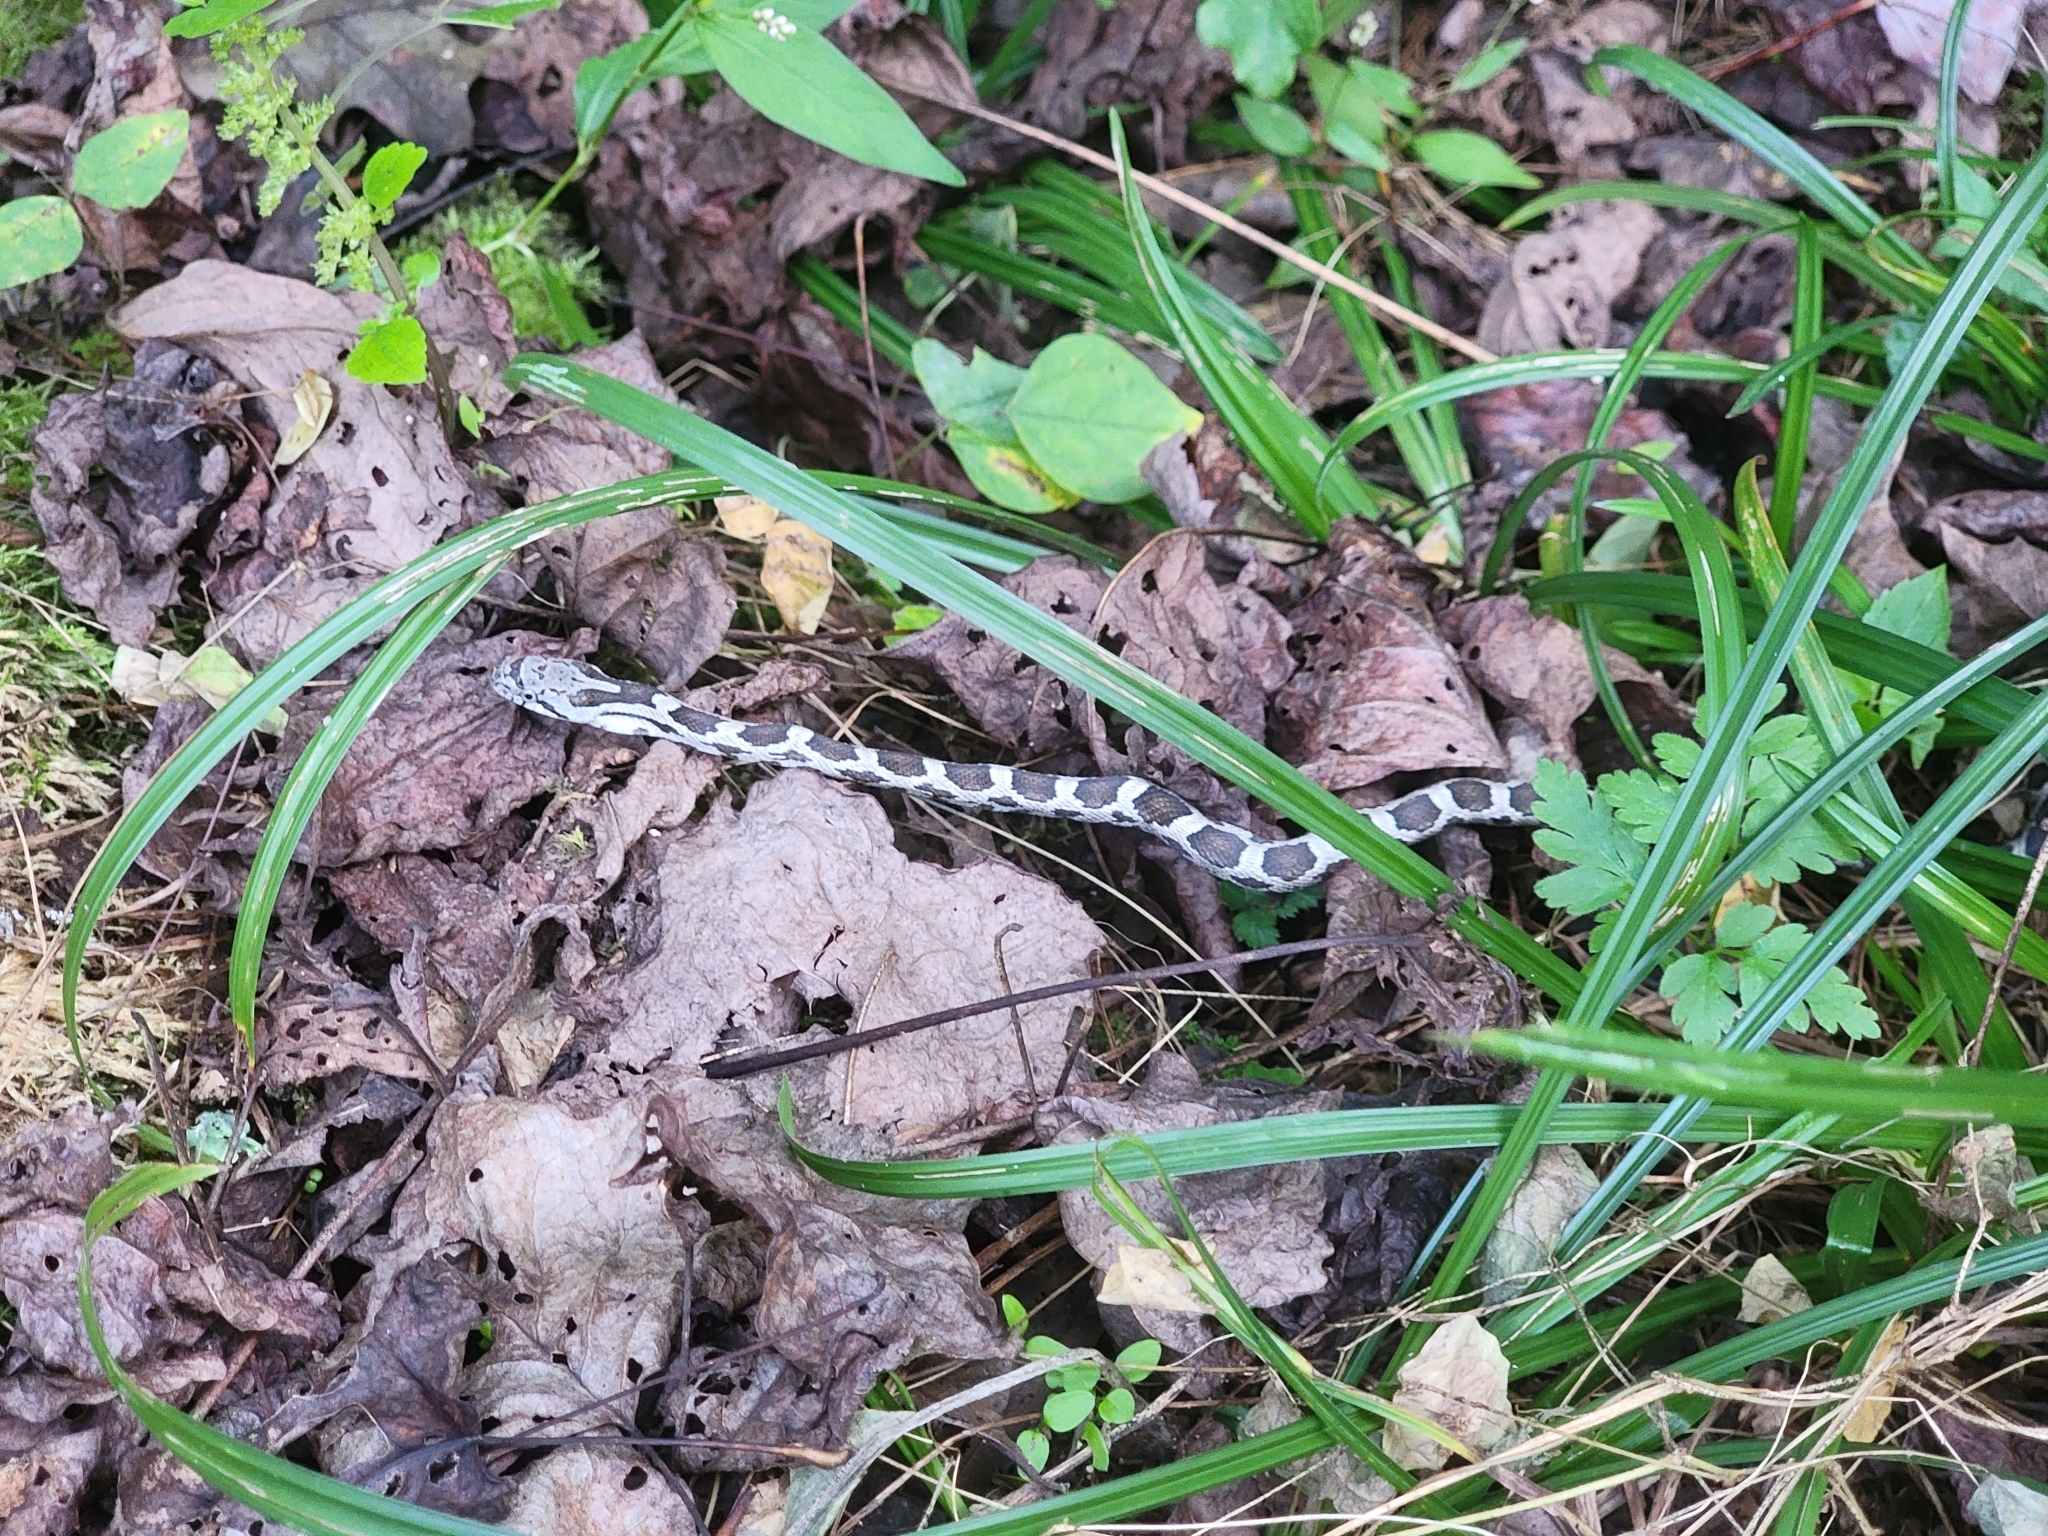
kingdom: Animalia
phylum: Chordata
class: Squamata
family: Colubridae
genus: Pantherophis
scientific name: Pantherophis spiloides
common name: Gray rat snake
